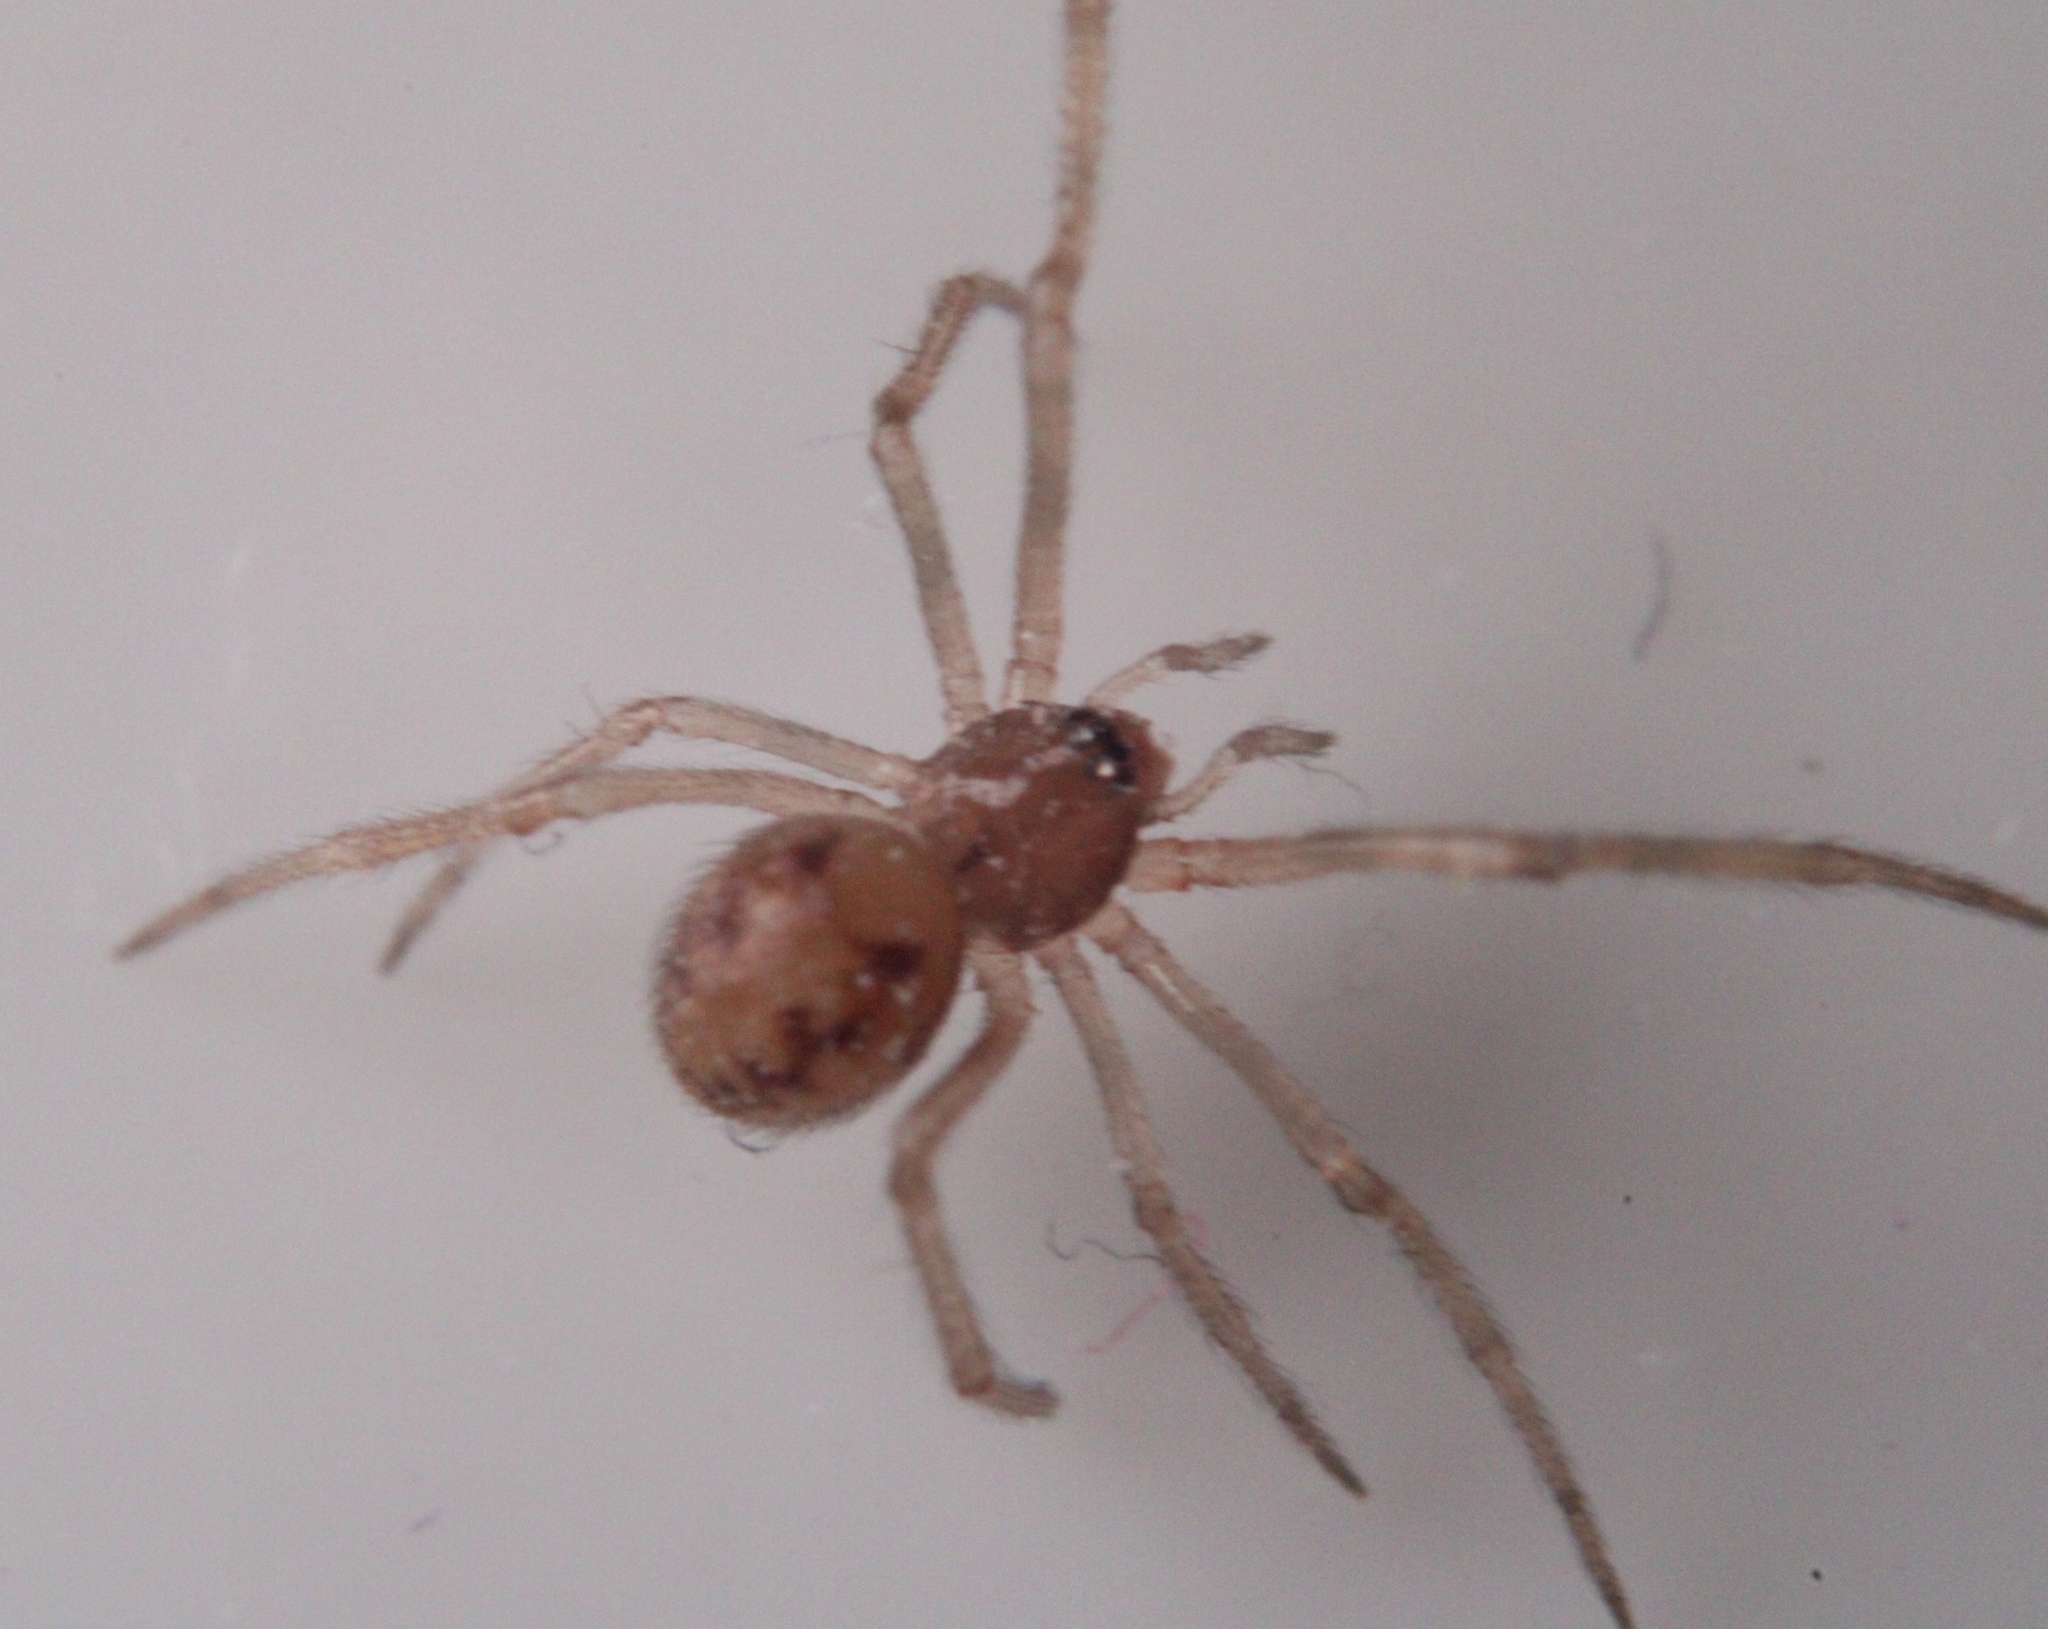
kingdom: Animalia
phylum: Arthropoda
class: Arachnida
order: Araneae
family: Theridiidae
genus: Steatoda
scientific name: Steatoda triangulosa
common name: Triangulate bud spider
